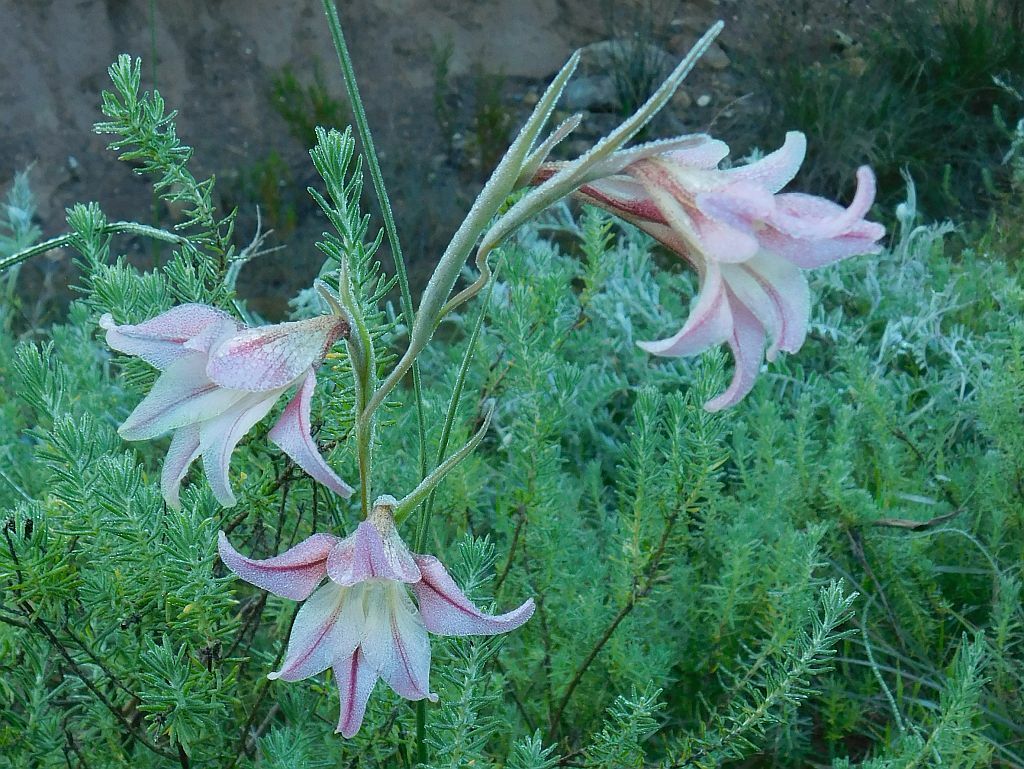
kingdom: Plantae
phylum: Tracheophyta
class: Liliopsida
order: Asparagales
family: Iridaceae
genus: Gladiolus
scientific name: Gladiolus liliaceus
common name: Large brown afrikaner
